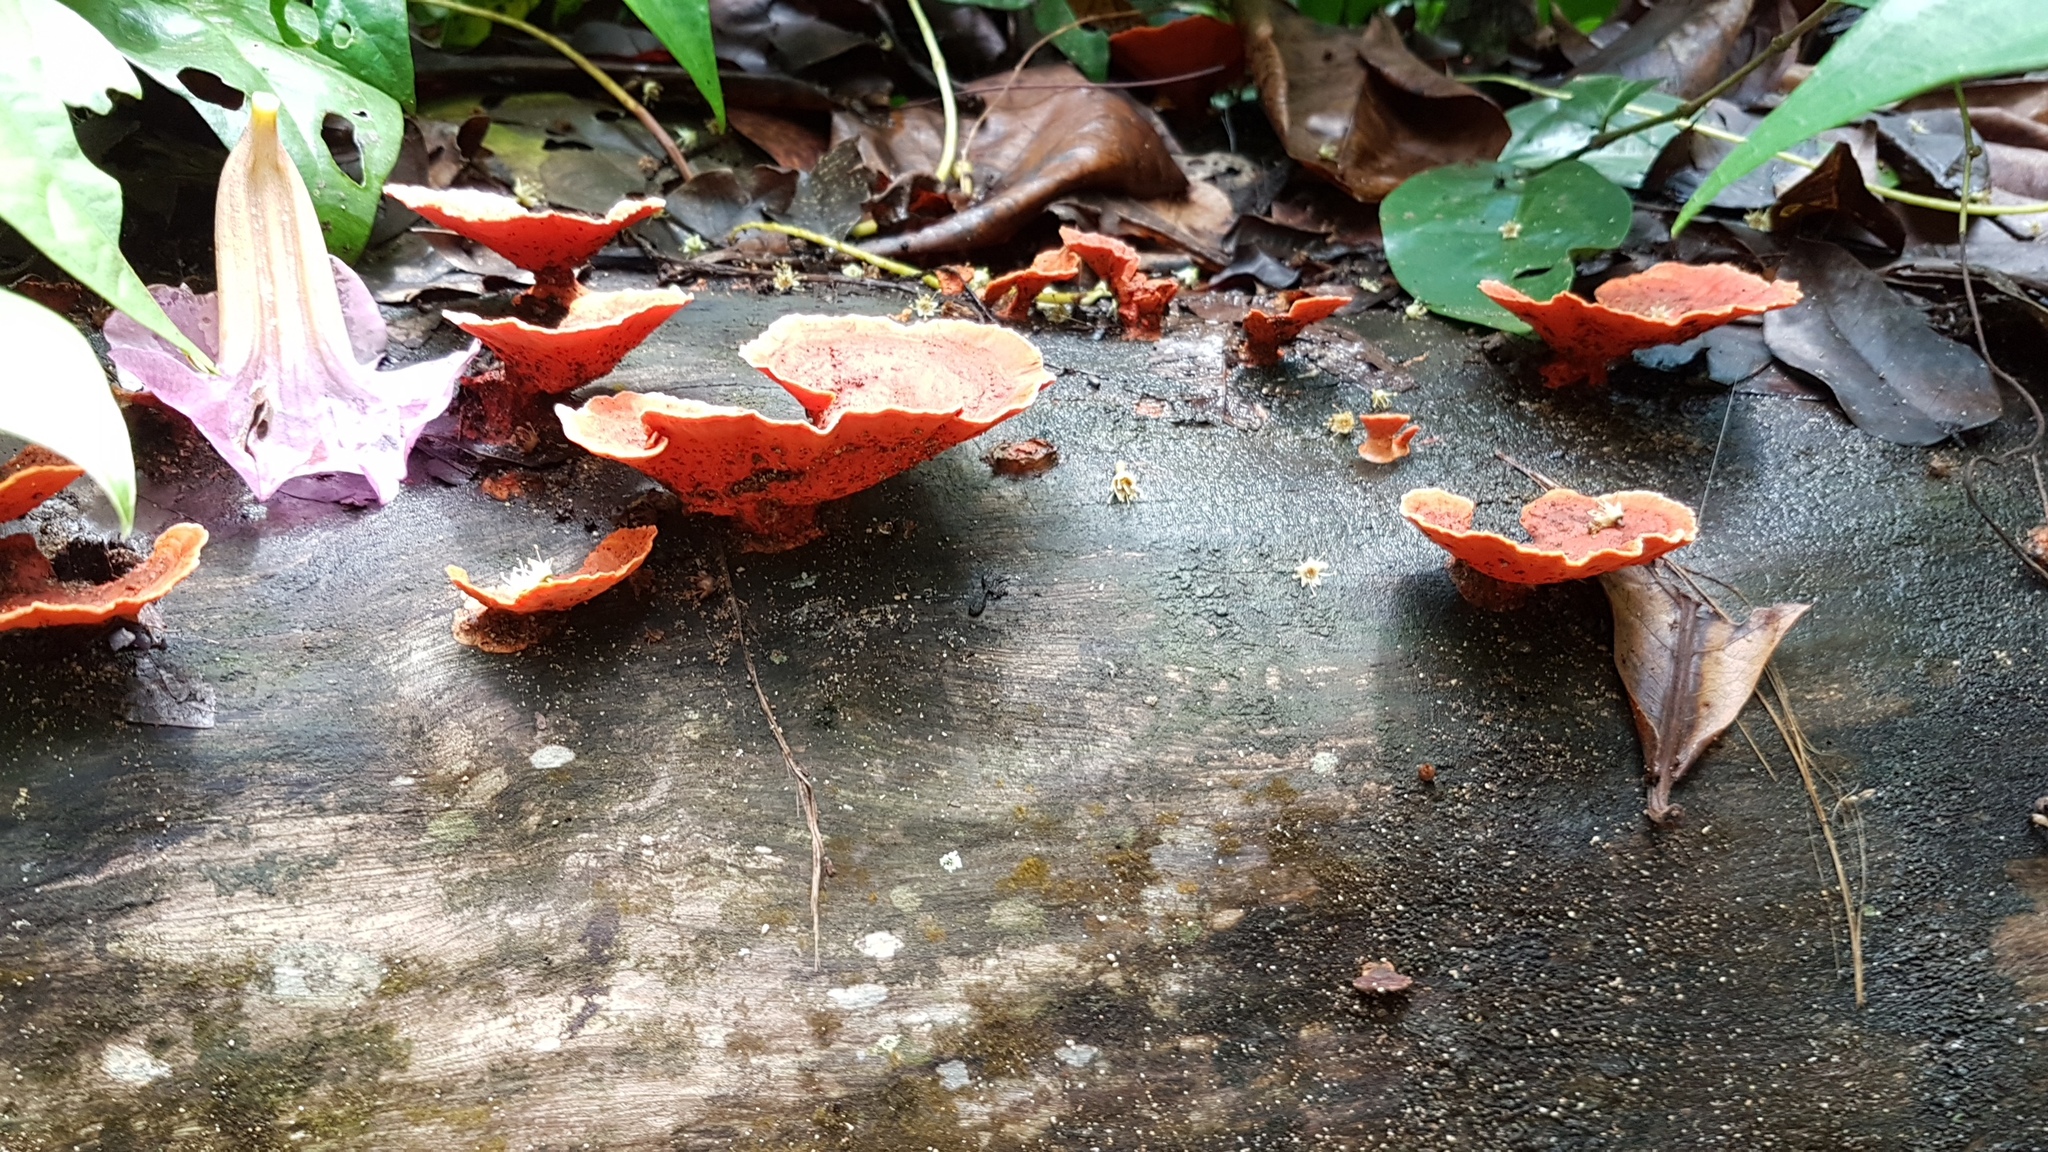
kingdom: Fungi
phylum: Basidiomycota
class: Agaricomycetes
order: Polyporales
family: Polyporaceae
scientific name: Polyporaceae
